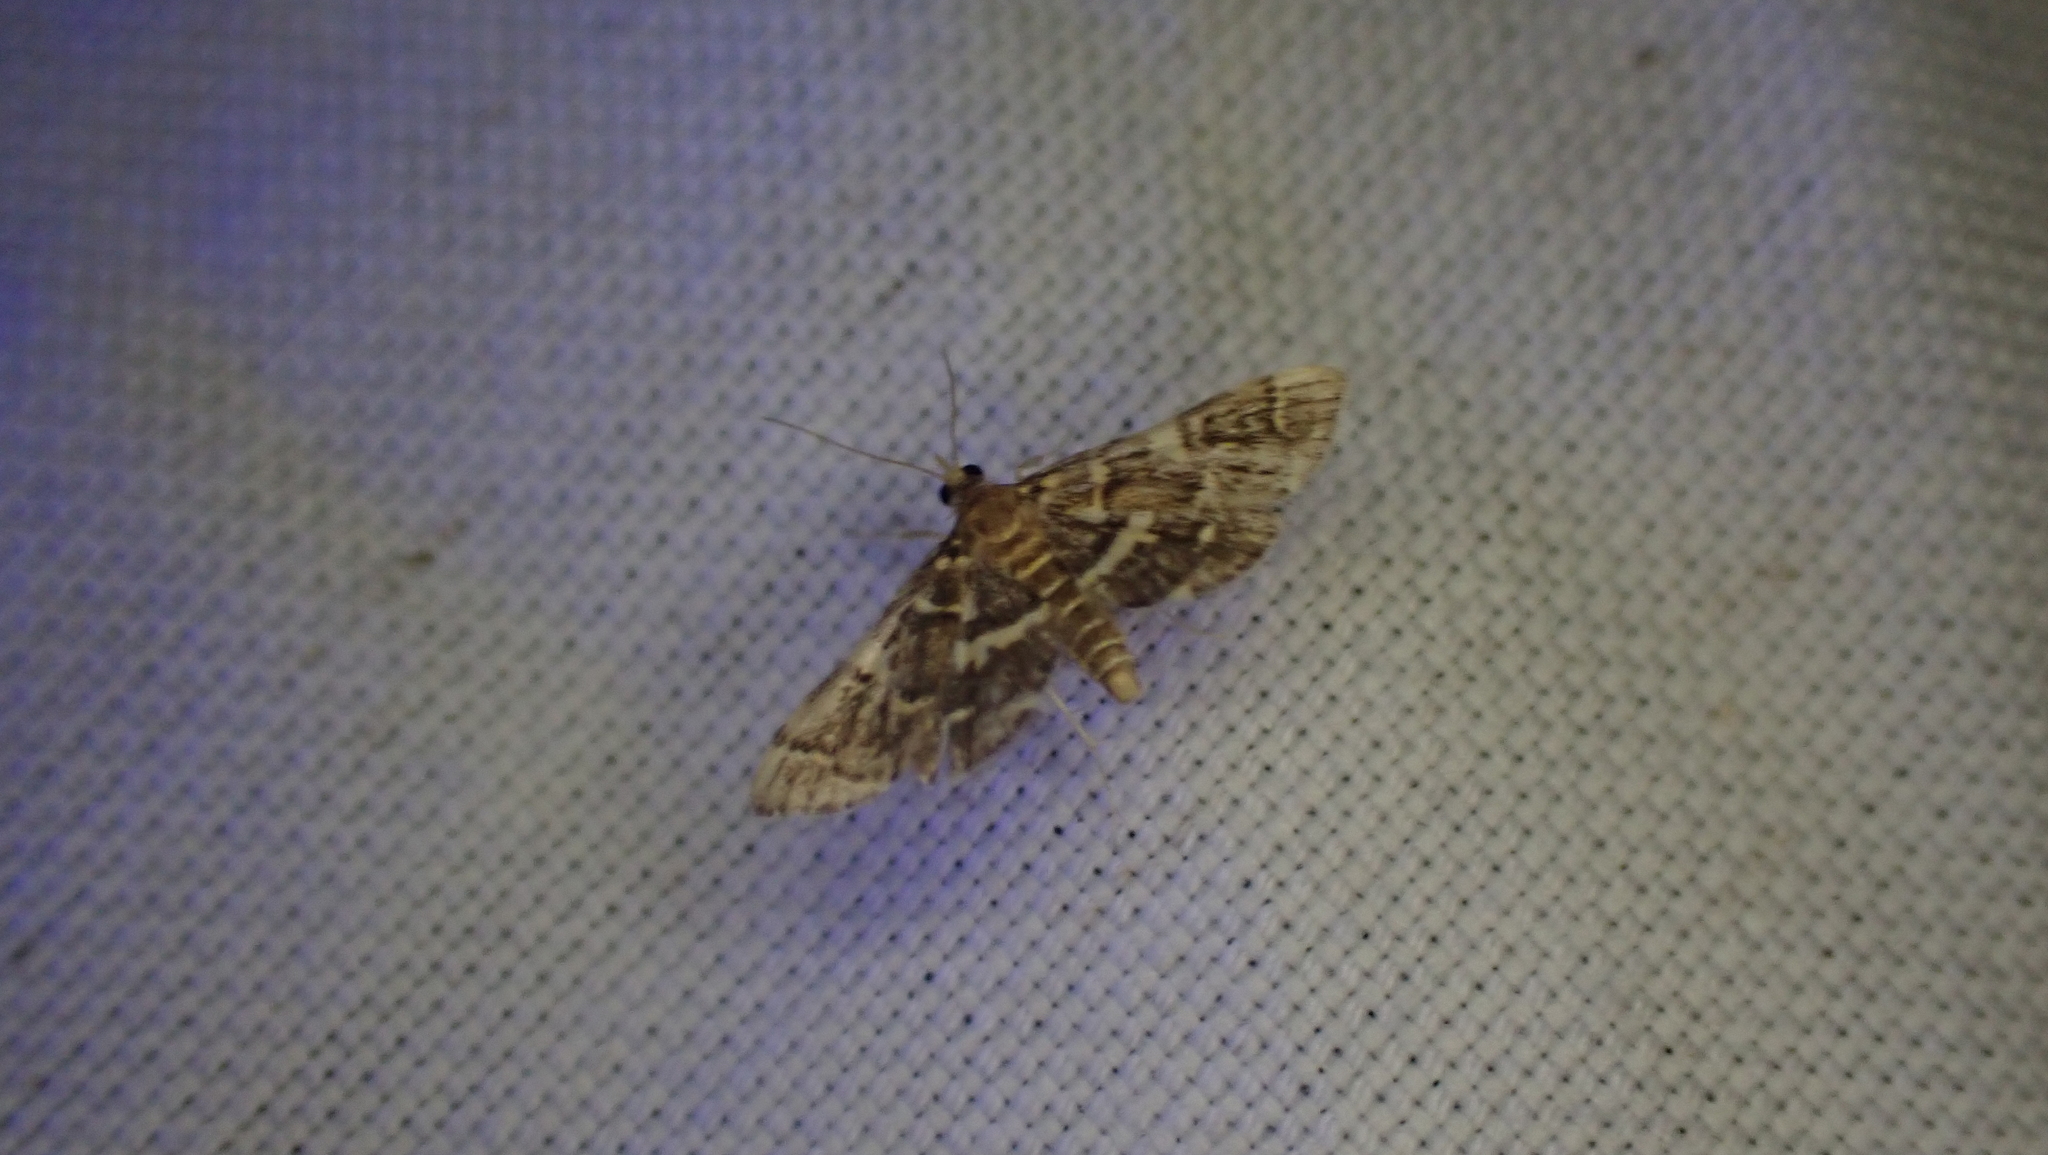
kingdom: Animalia
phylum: Arthropoda
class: Insecta
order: Lepidoptera
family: Crambidae
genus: Anageshna
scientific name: Anageshna primordialis
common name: Yellow-spotted webworm moth
